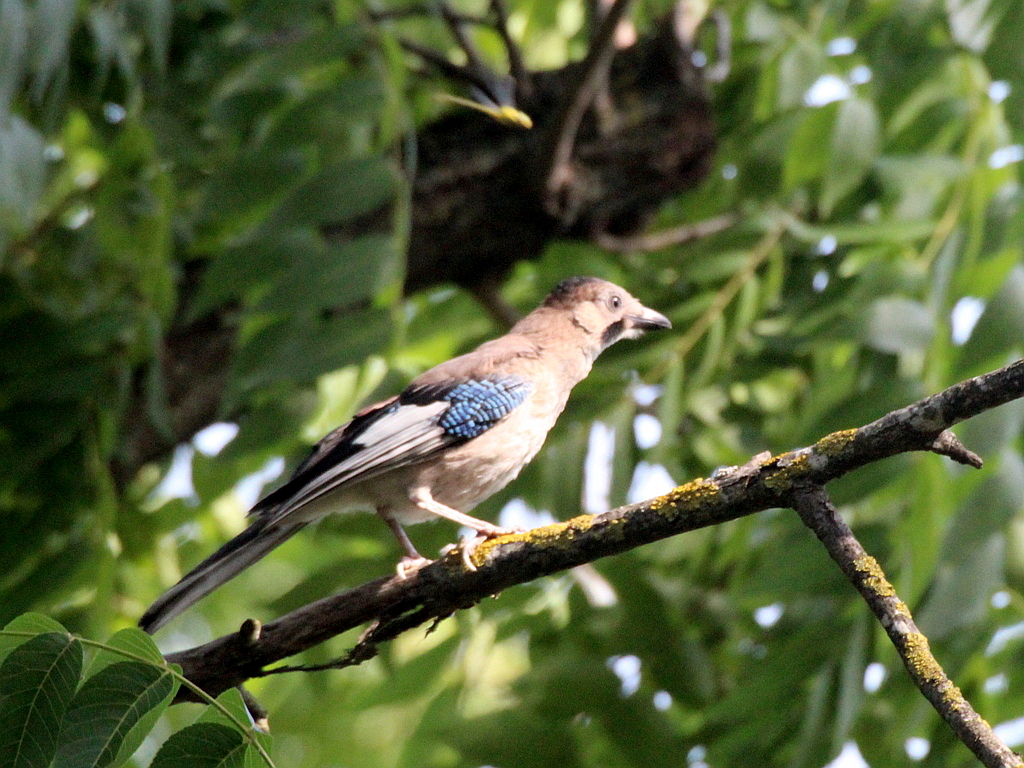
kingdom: Animalia
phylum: Chordata
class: Aves
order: Passeriformes
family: Corvidae
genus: Garrulus
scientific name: Garrulus glandarius
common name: Eurasian jay
